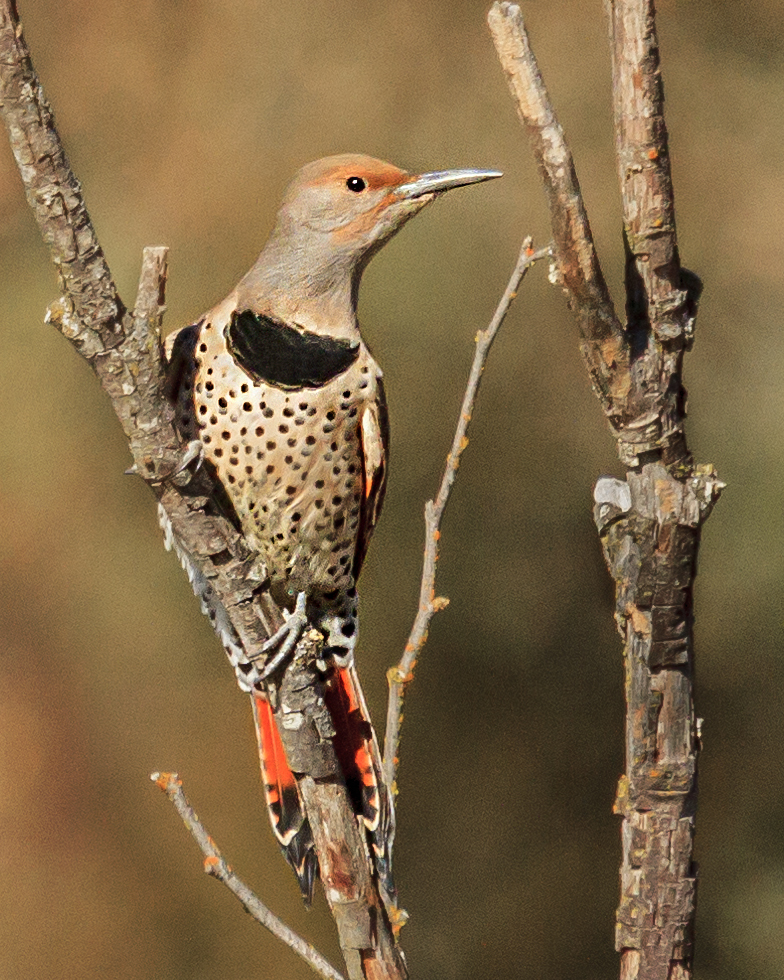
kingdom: Animalia
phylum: Chordata
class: Aves
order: Piciformes
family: Picidae
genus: Colaptes
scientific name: Colaptes auratus
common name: Northern flicker
